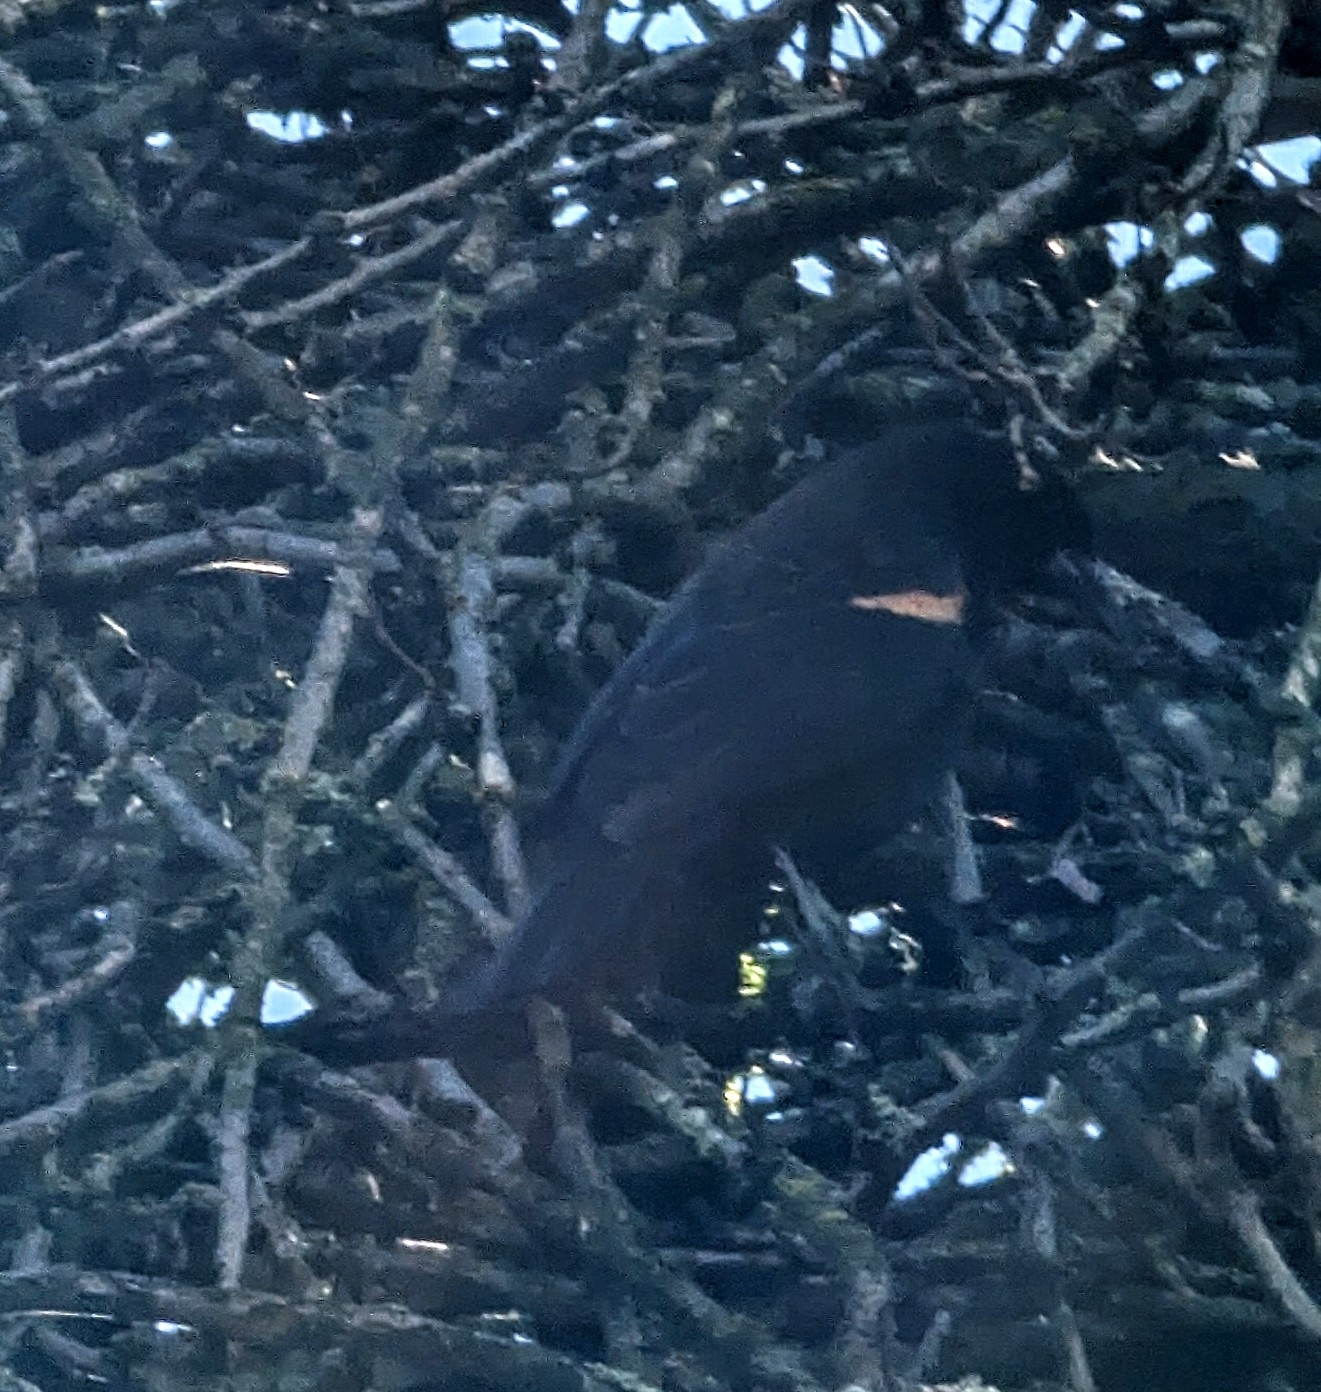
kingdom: Animalia
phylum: Chordata
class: Aves
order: Passeriformes
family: Icteridae
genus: Agelaius
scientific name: Agelaius phoeniceus
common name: Red-winged blackbird
